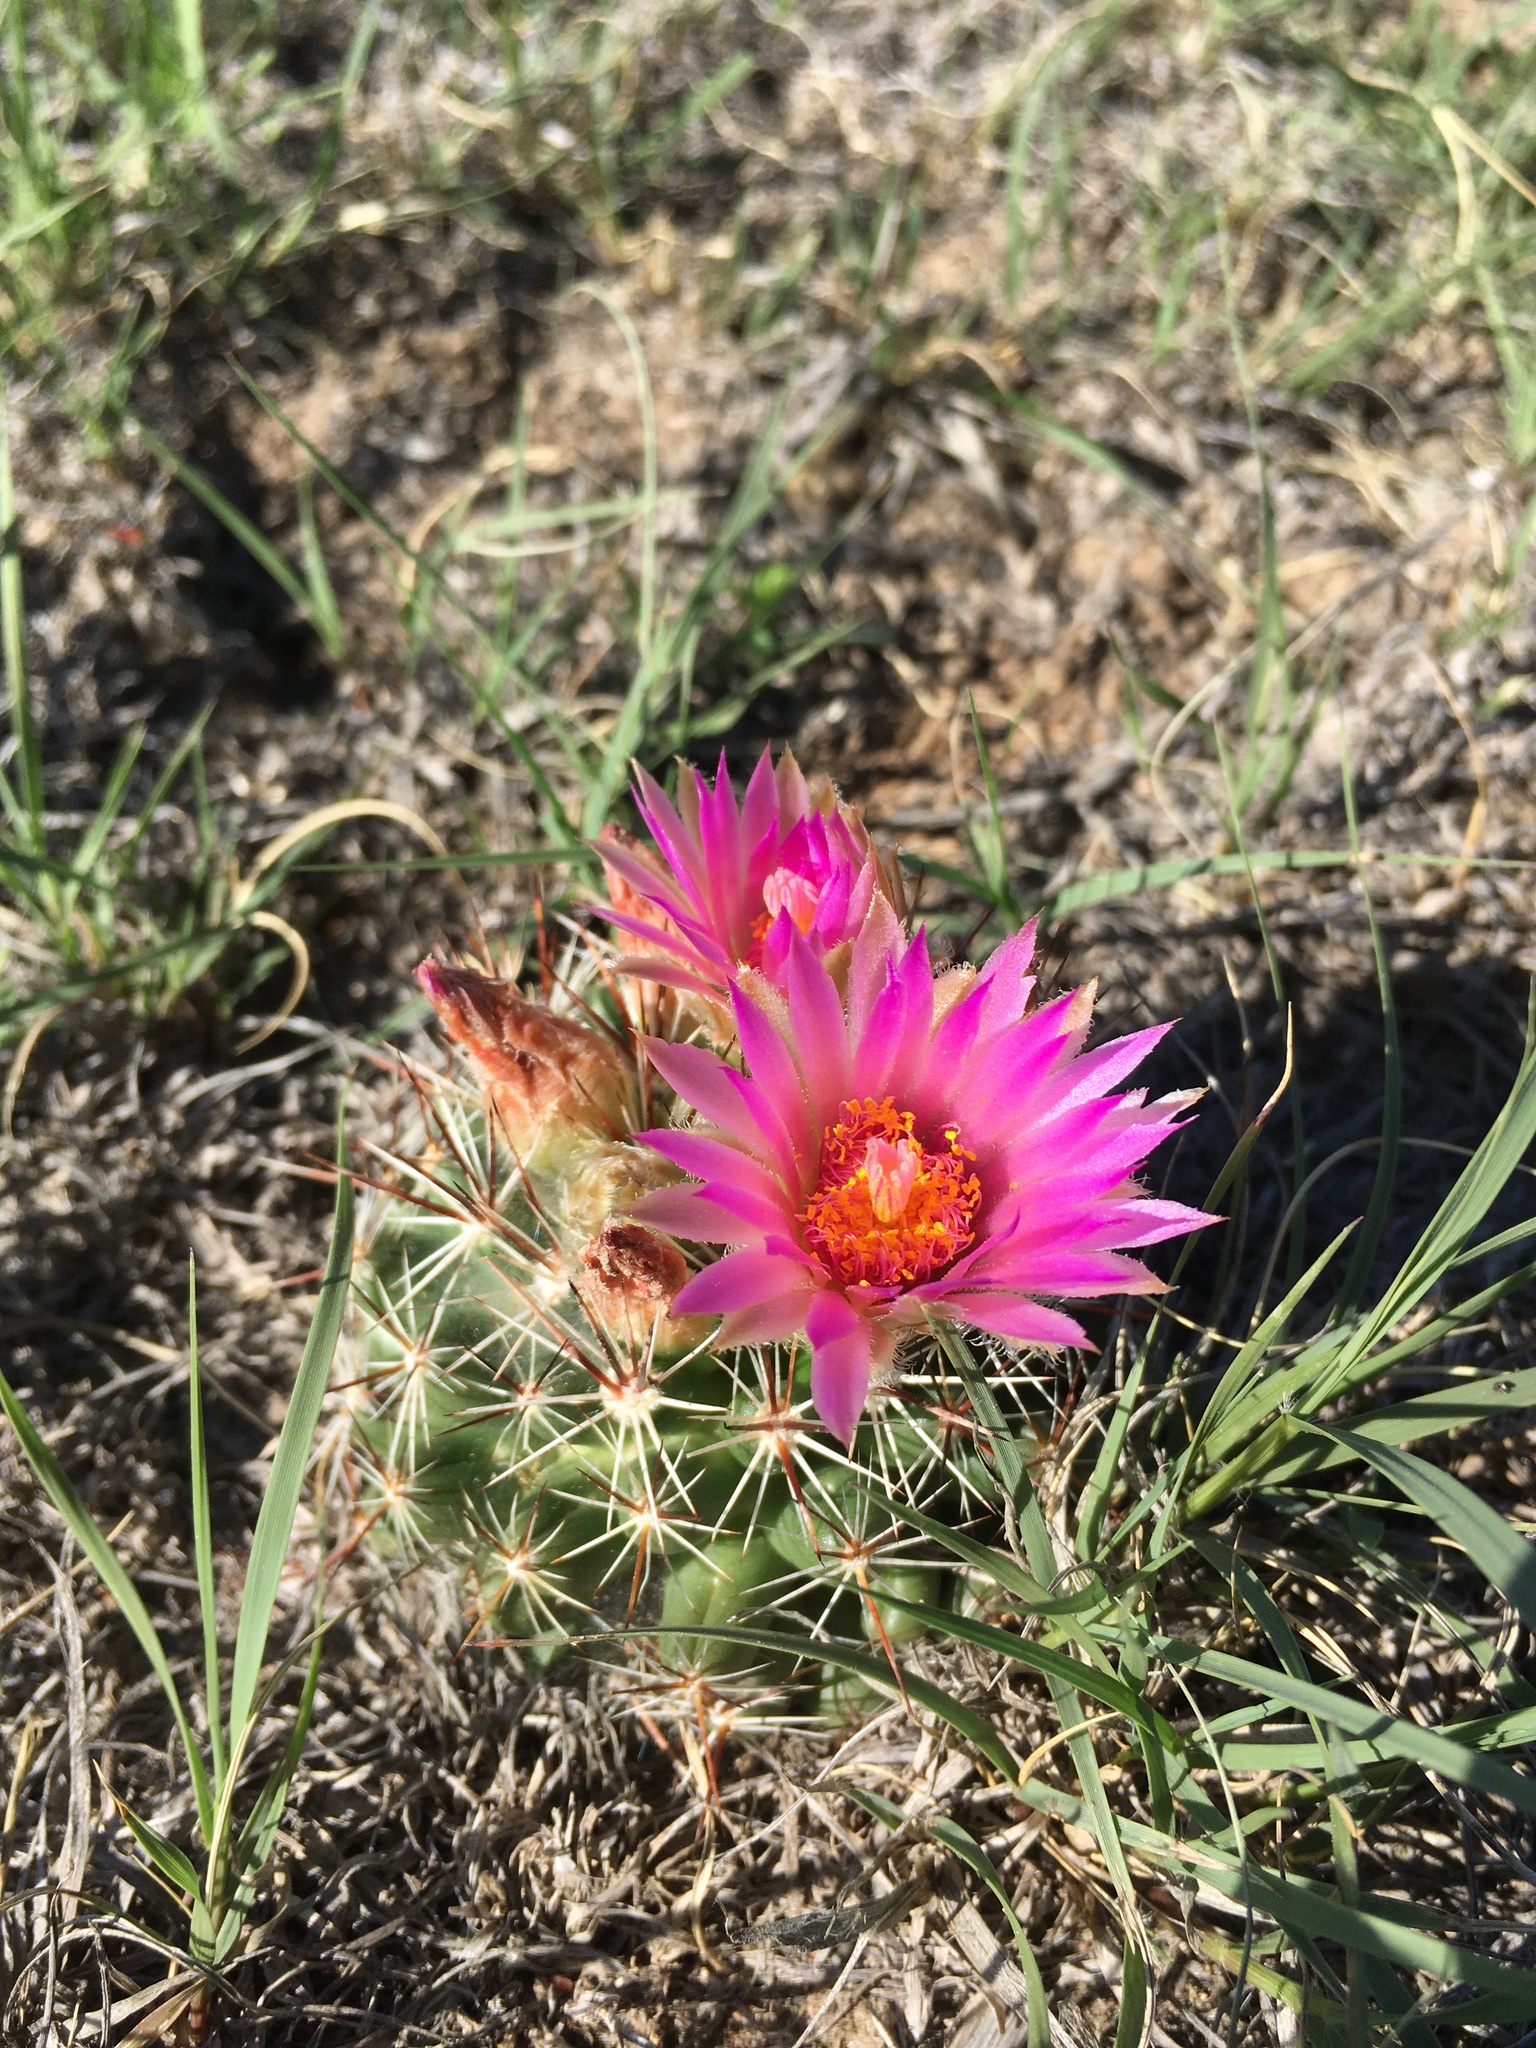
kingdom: Plantae
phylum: Tracheophyta
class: Magnoliopsida
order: Caryophyllales
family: Cactaceae
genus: Pelecyphora
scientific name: Pelecyphora vivipara
